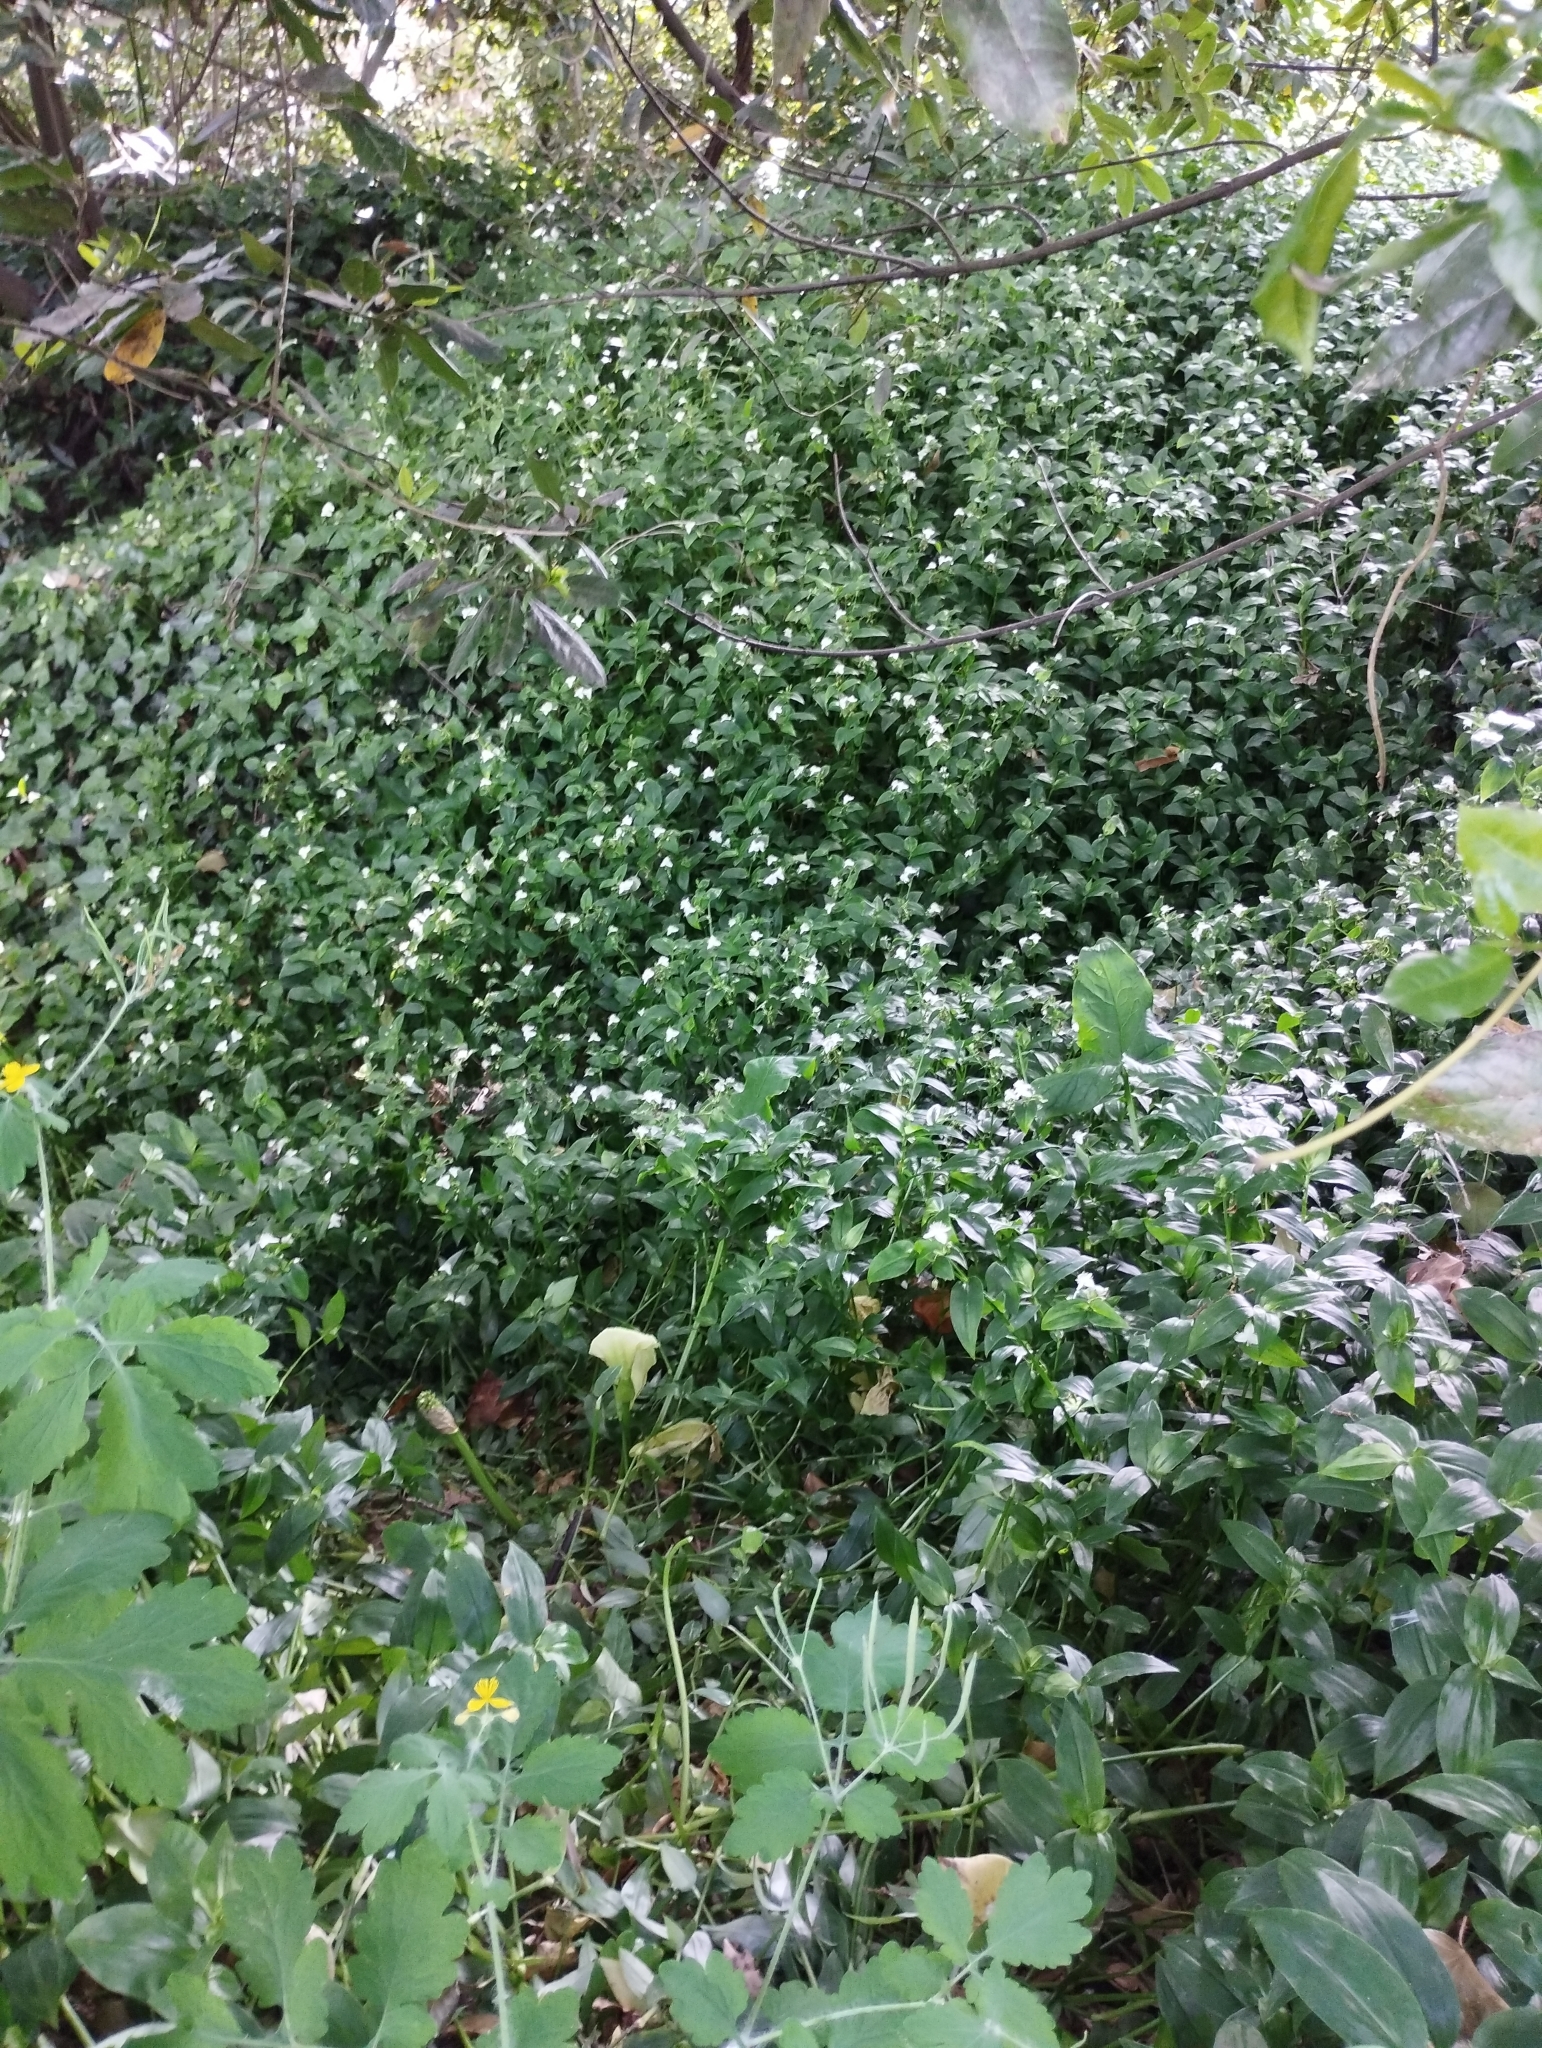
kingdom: Plantae
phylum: Tracheophyta
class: Liliopsida
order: Commelinales
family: Commelinaceae
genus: Tradescantia
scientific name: Tradescantia fluminensis
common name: Wandering-jew
